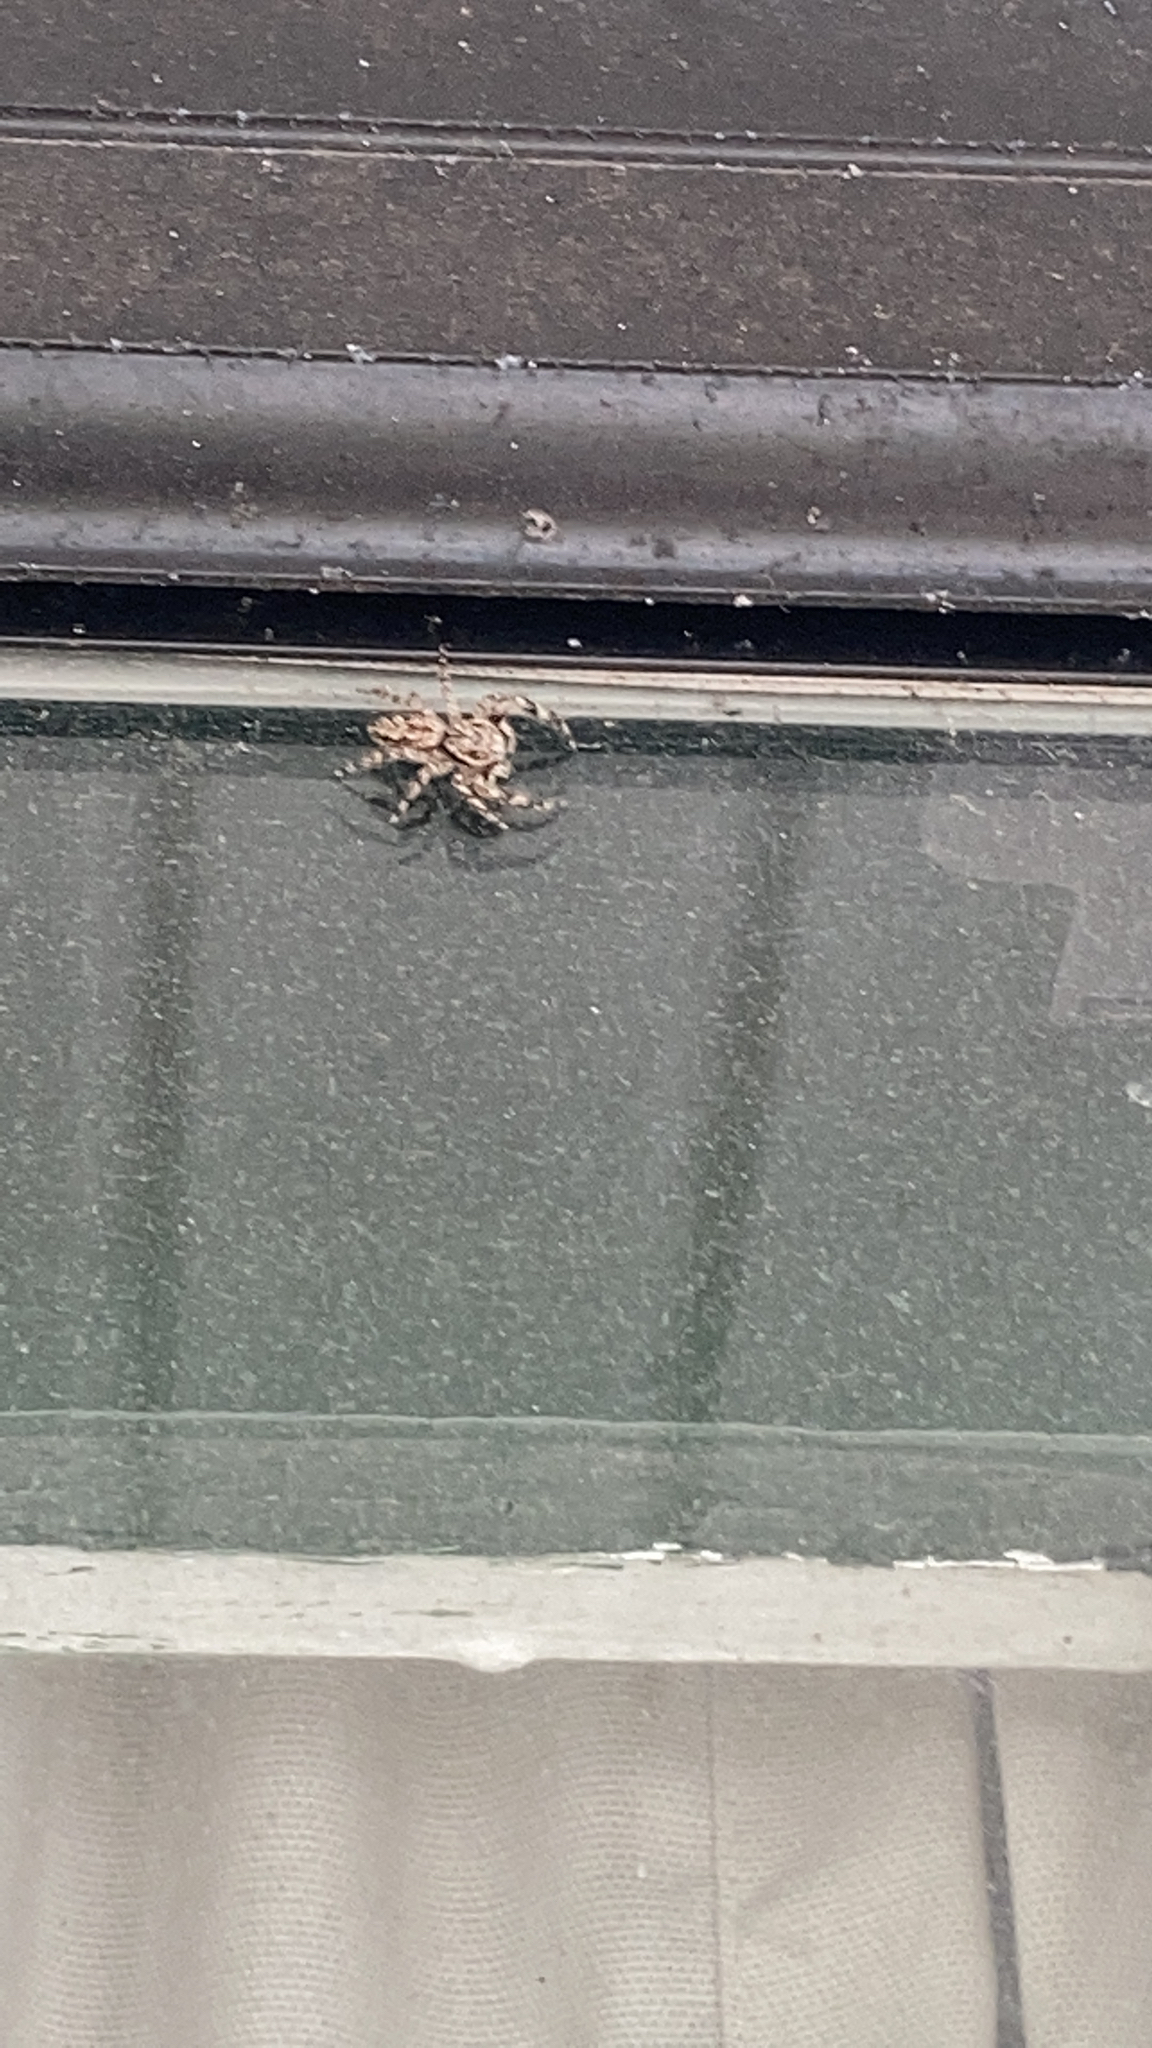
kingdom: Animalia
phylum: Arthropoda
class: Arachnida
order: Araneae
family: Salticidae
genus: Platycryptus
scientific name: Platycryptus undatus
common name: Tan jumping spider
